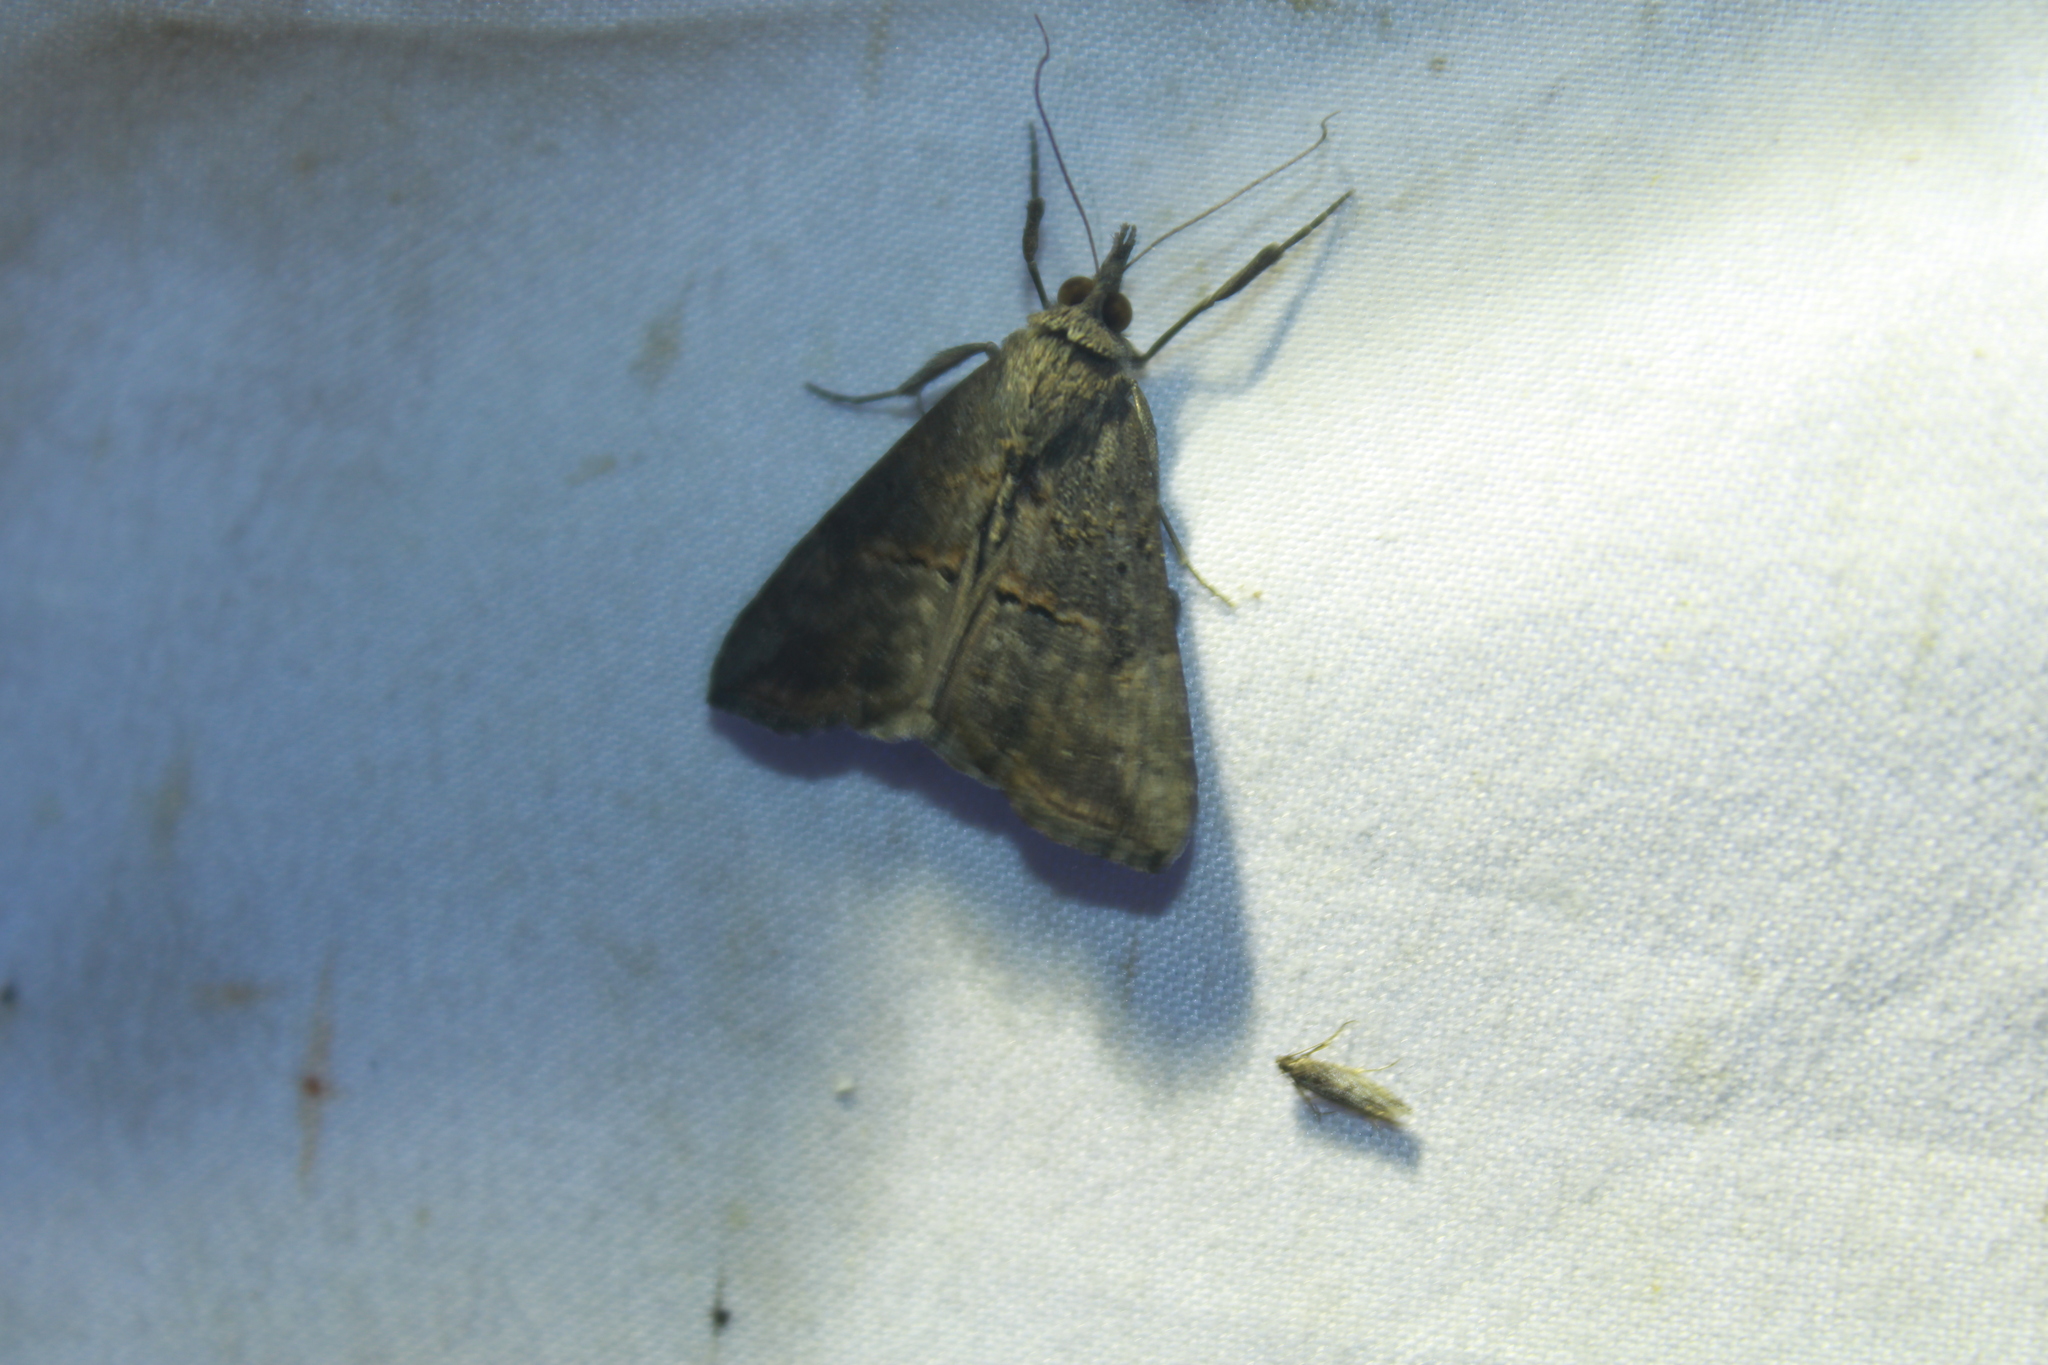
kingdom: Animalia
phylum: Arthropoda
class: Insecta
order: Lepidoptera
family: Erebidae
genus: Hypena
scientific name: Hypena scabra
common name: Green cloverworm
